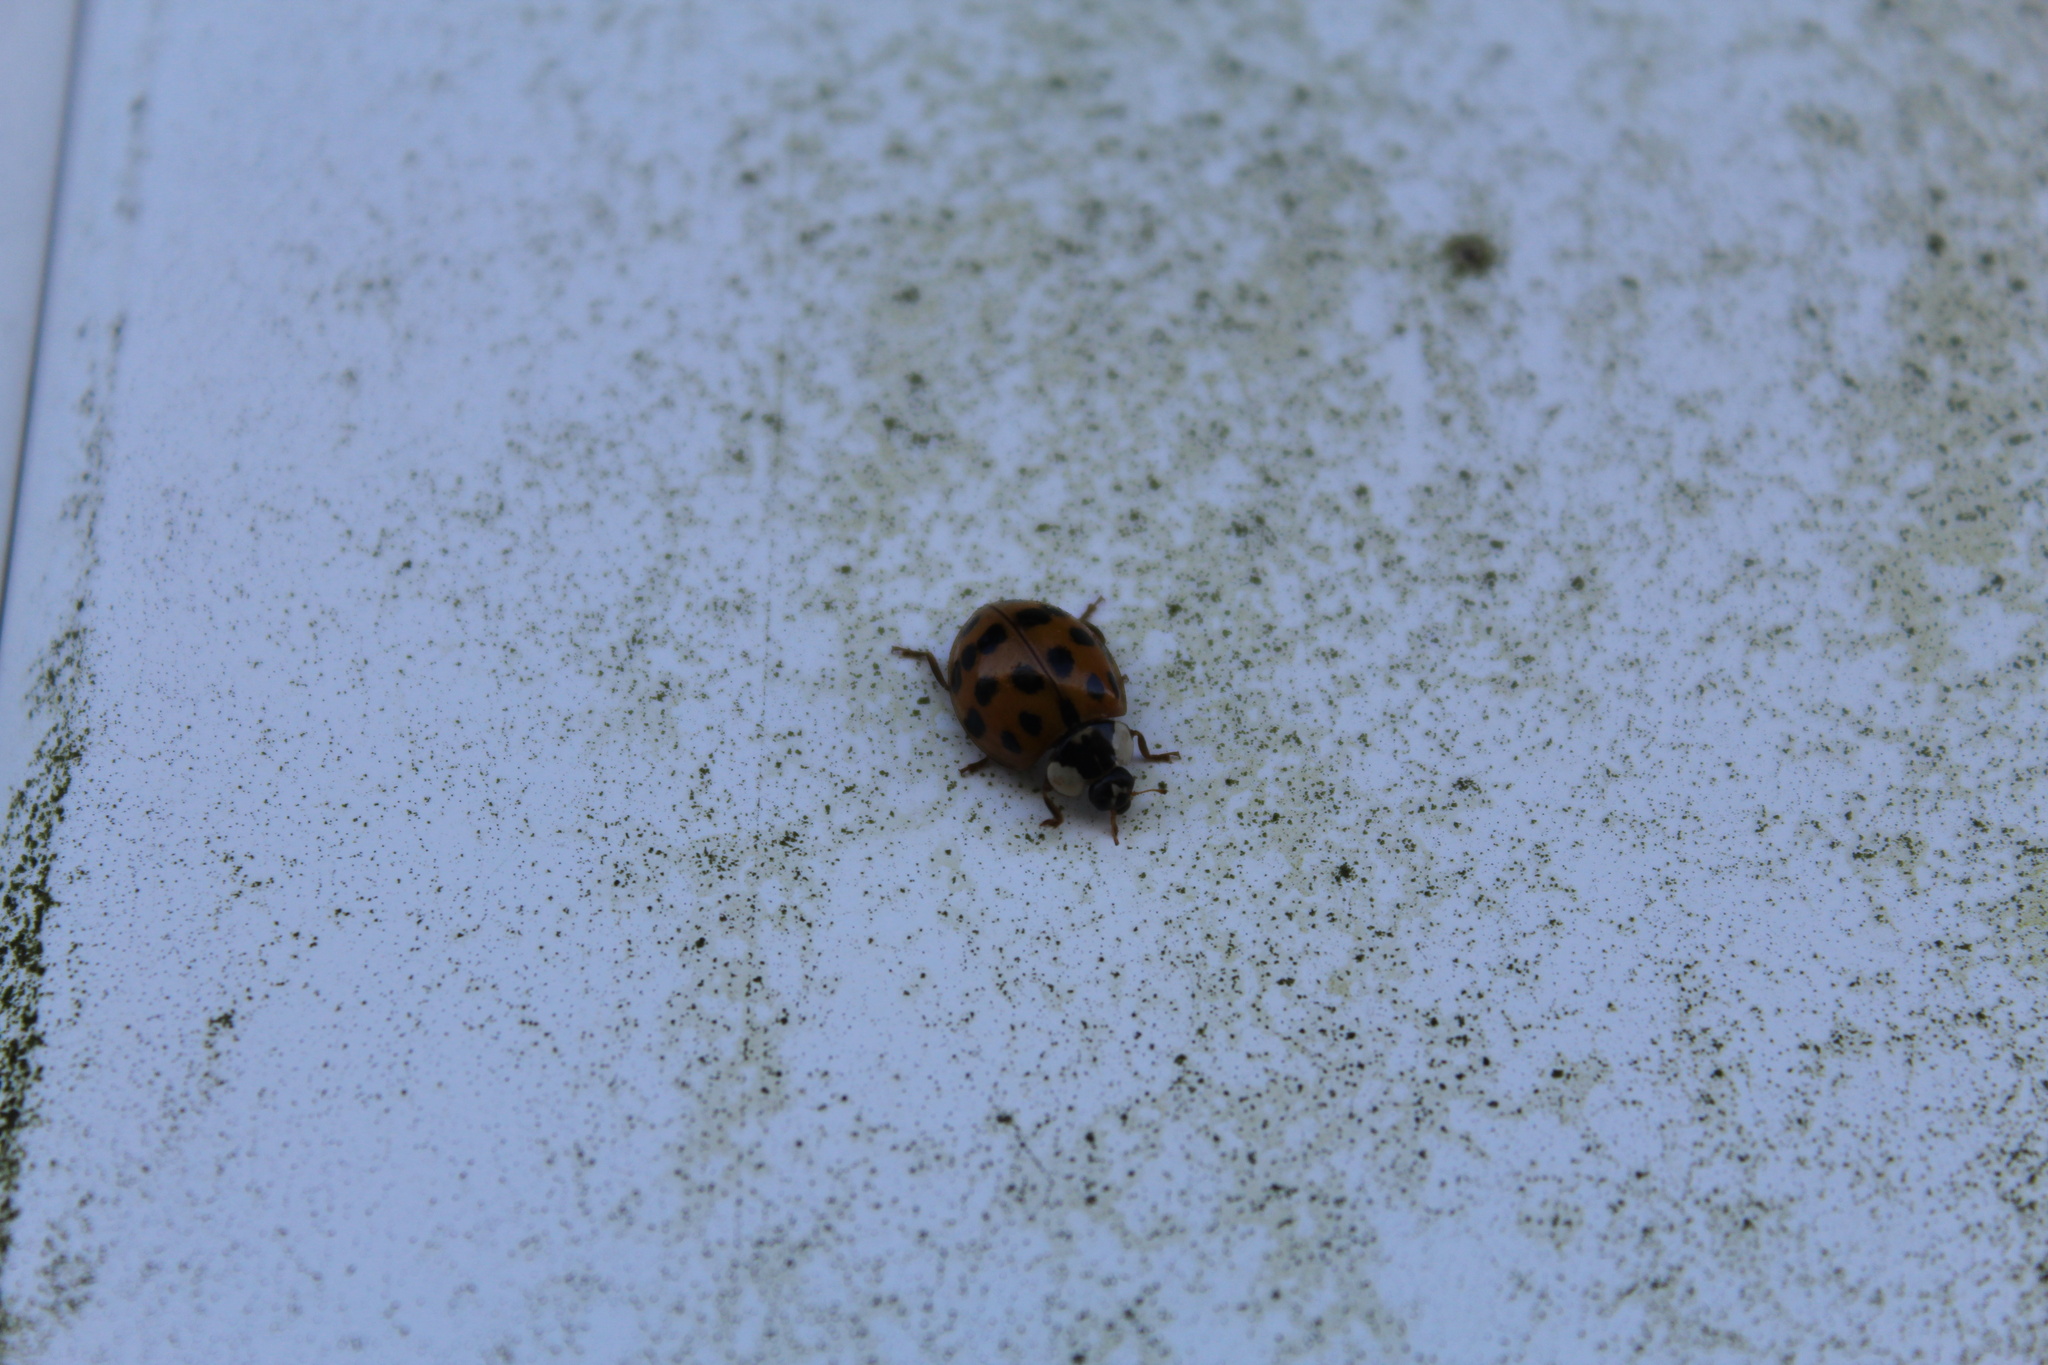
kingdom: Animalia
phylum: Arthropoda
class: Insecta
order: Coleoptera
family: Coccinellidae
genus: Harmonia
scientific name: Harmonia axyridis
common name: Harlequin ladybird
